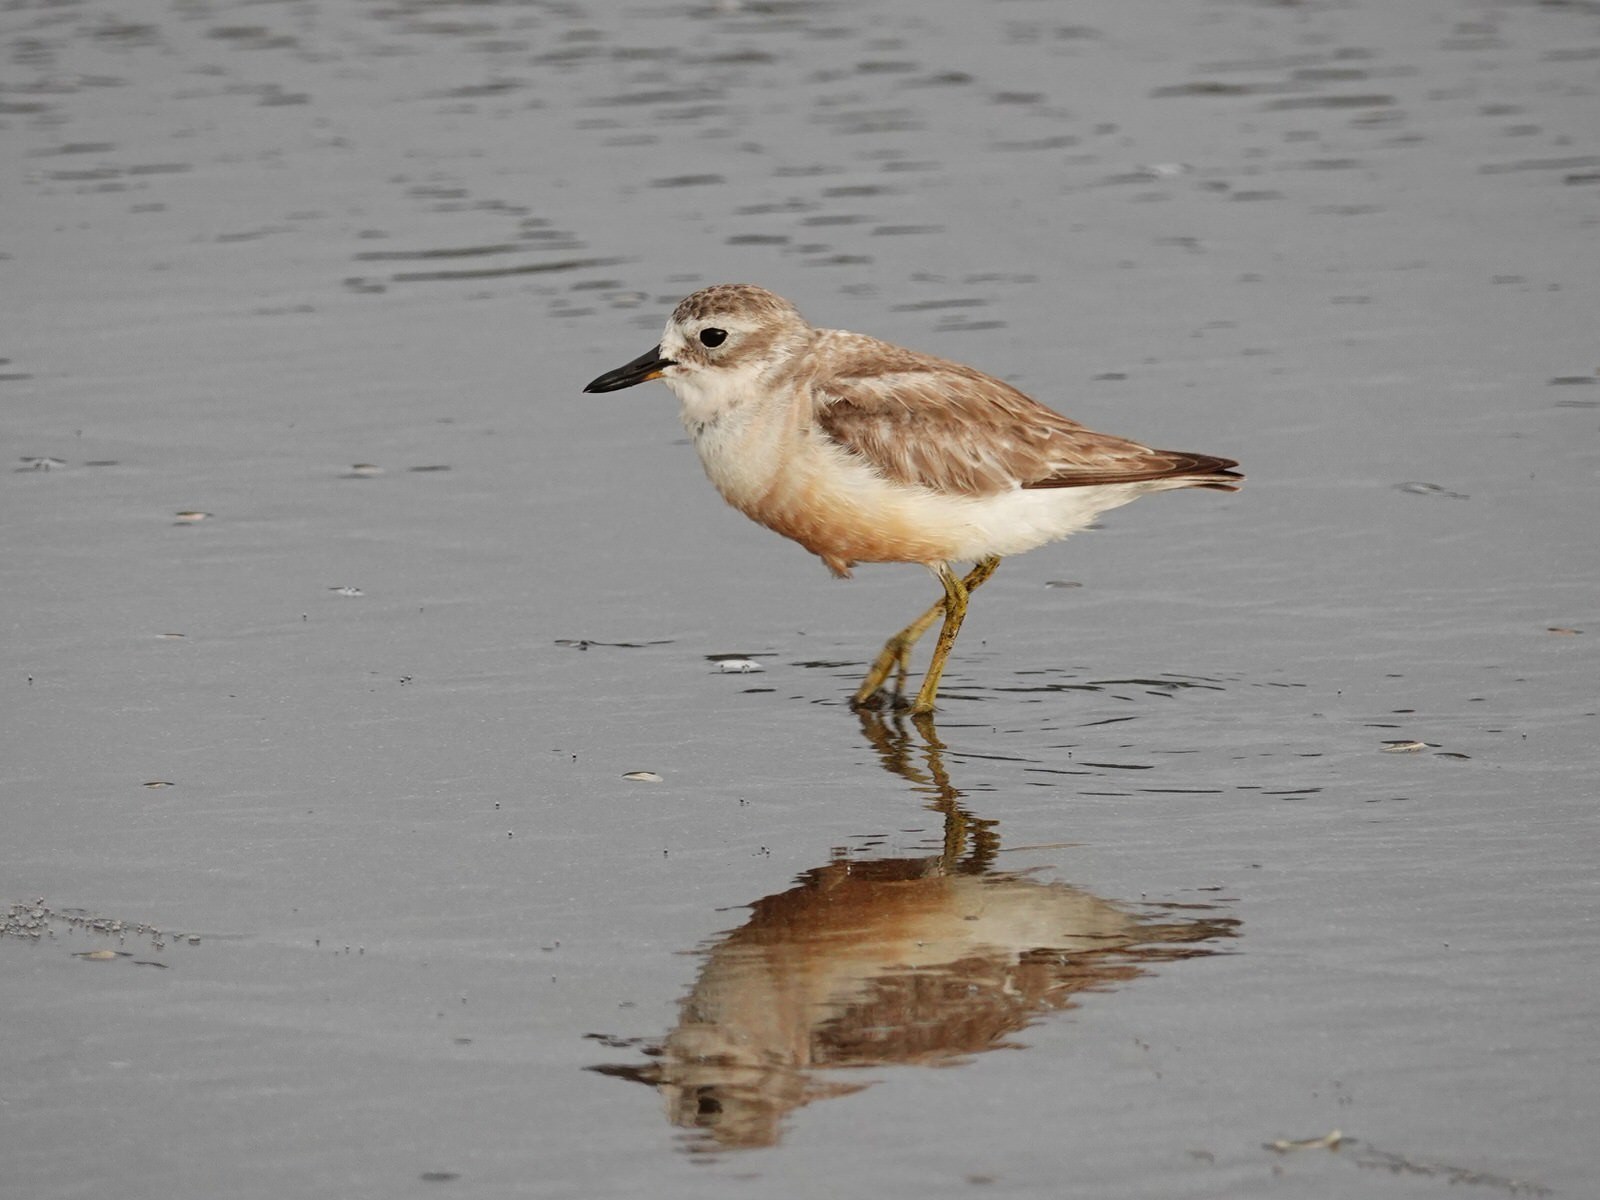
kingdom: Animalia
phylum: Chordata
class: Aves
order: Charadriiformes
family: Charadriidae
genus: Anarhynchus
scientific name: Anarhynchus
